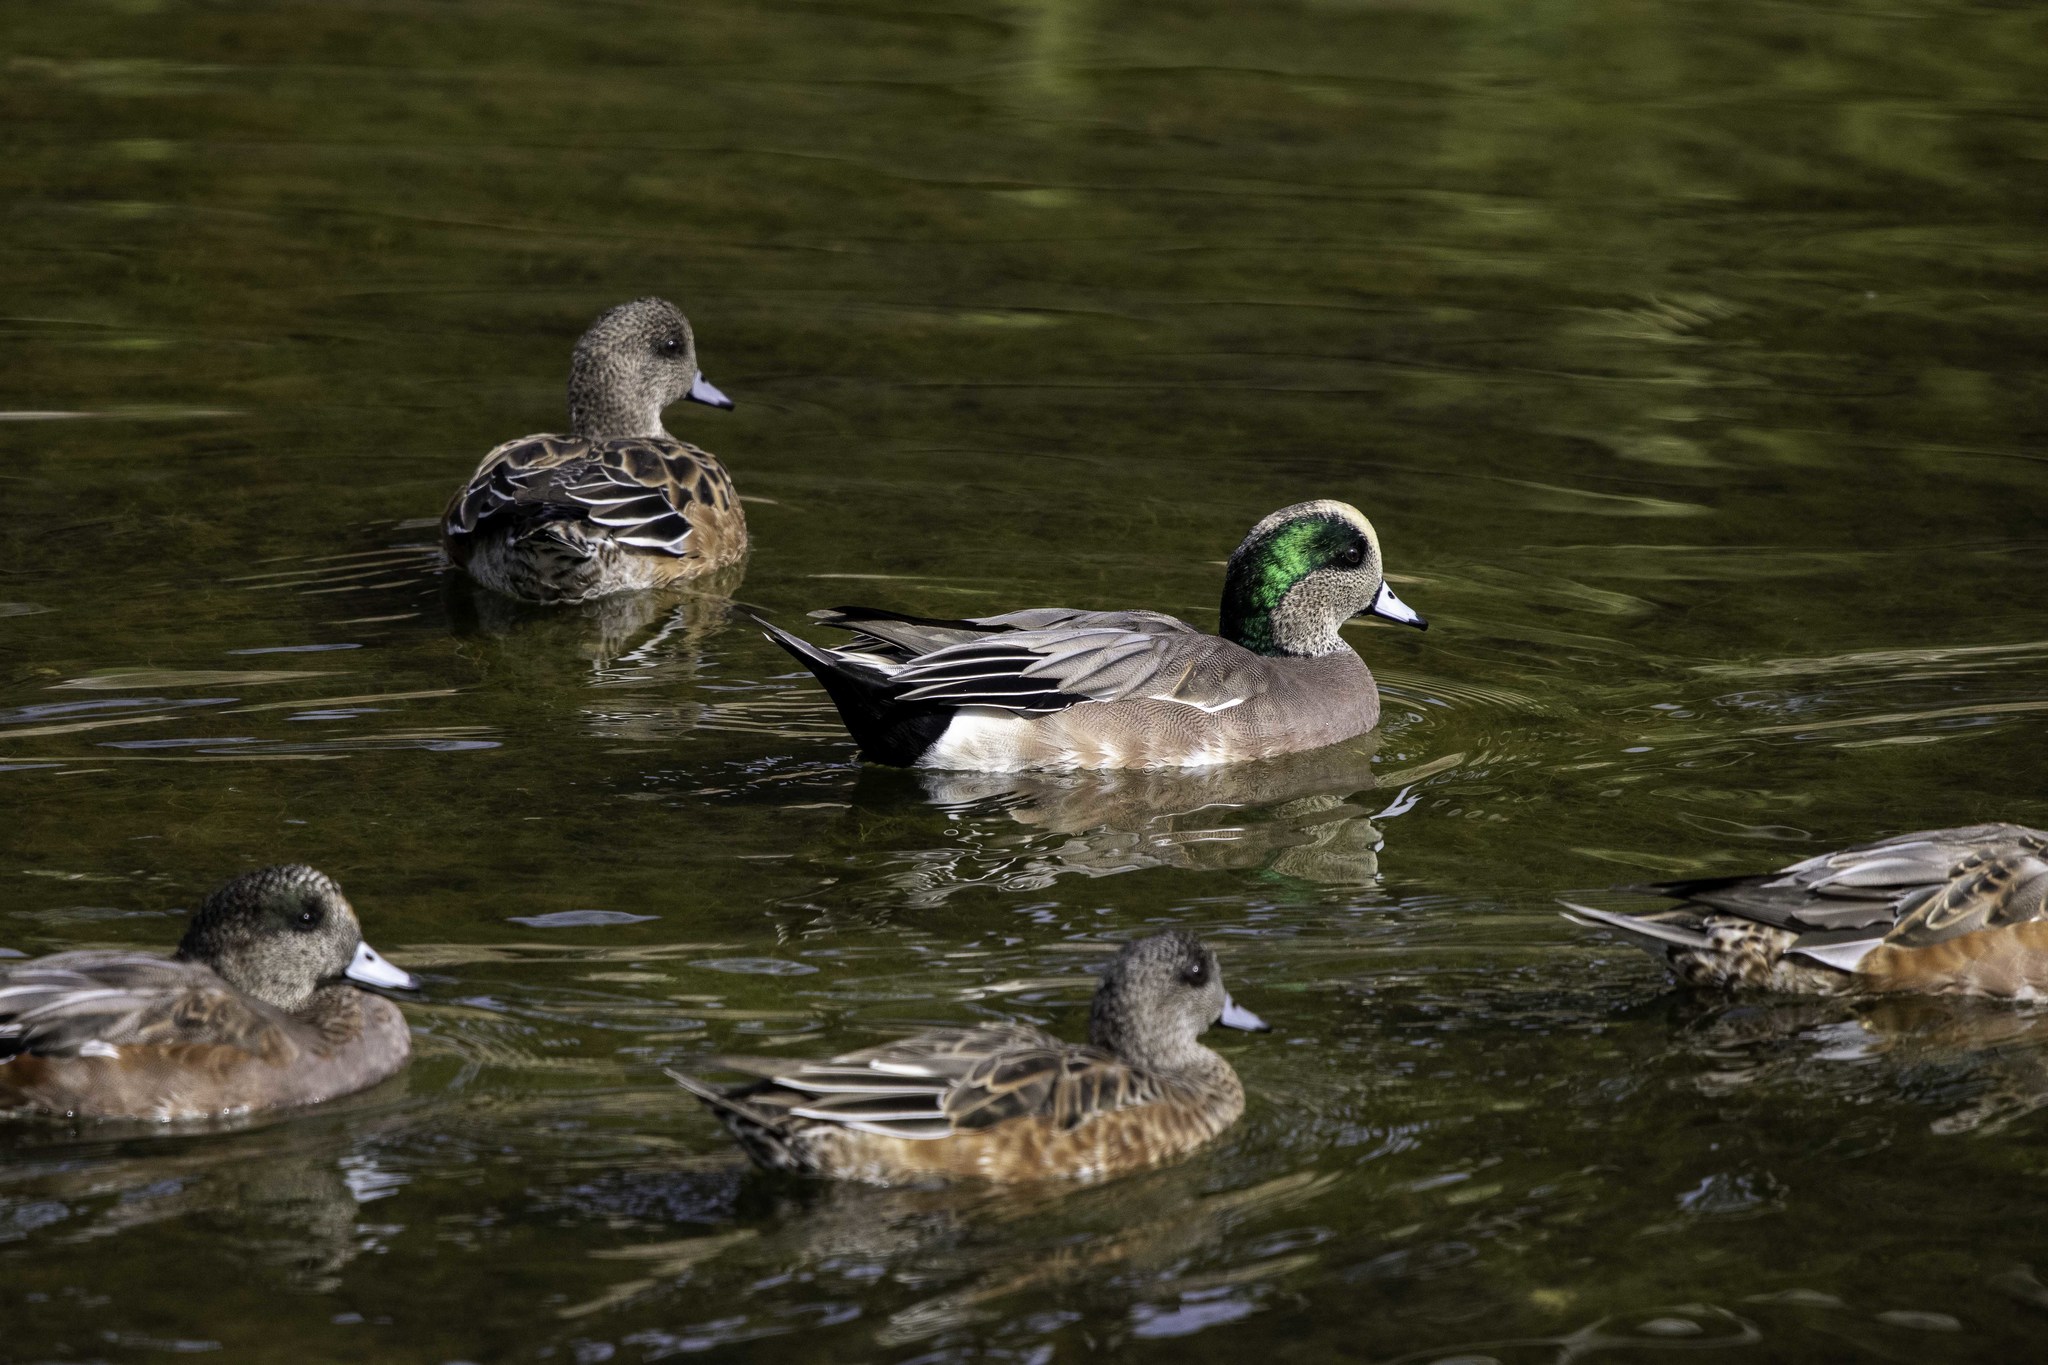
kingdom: Animalia
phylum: Chordata
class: Aves
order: Anseriformes
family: Anatidae
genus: Mareca
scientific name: Mareca americana
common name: American wigeon
